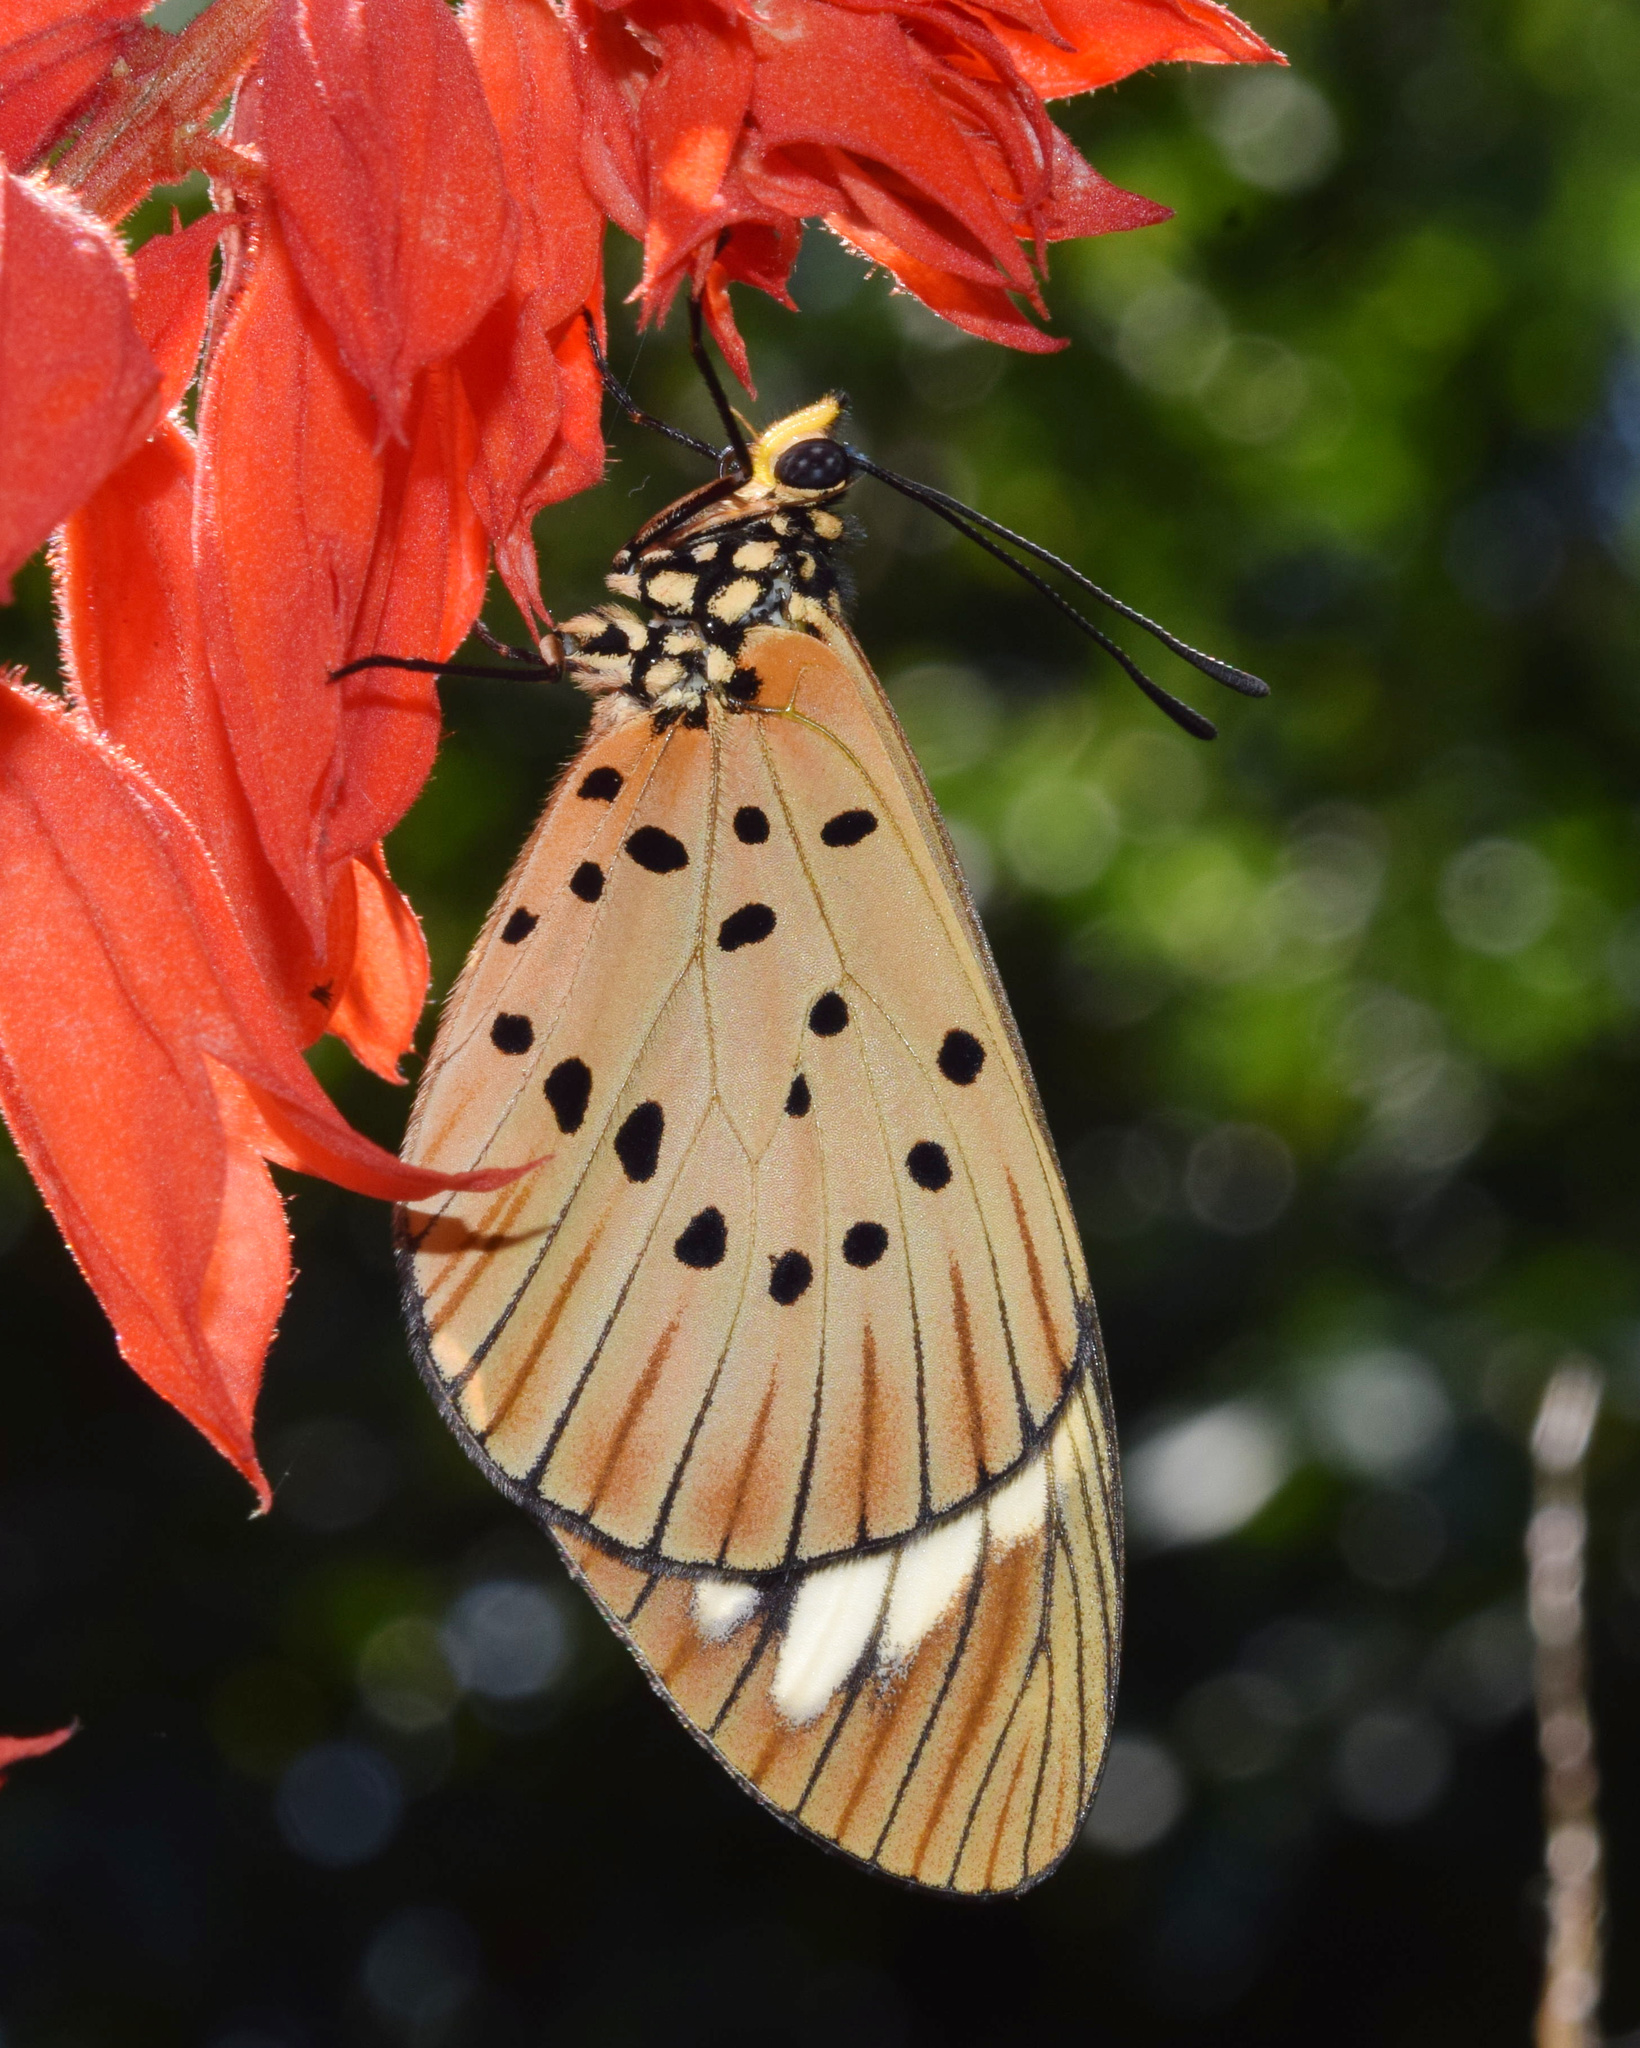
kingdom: Animalia
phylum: Arthropoda
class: Insecta
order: Lepidoptera
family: Nymphalidae
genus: Acraea
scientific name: Acraea Telchinia encedon
